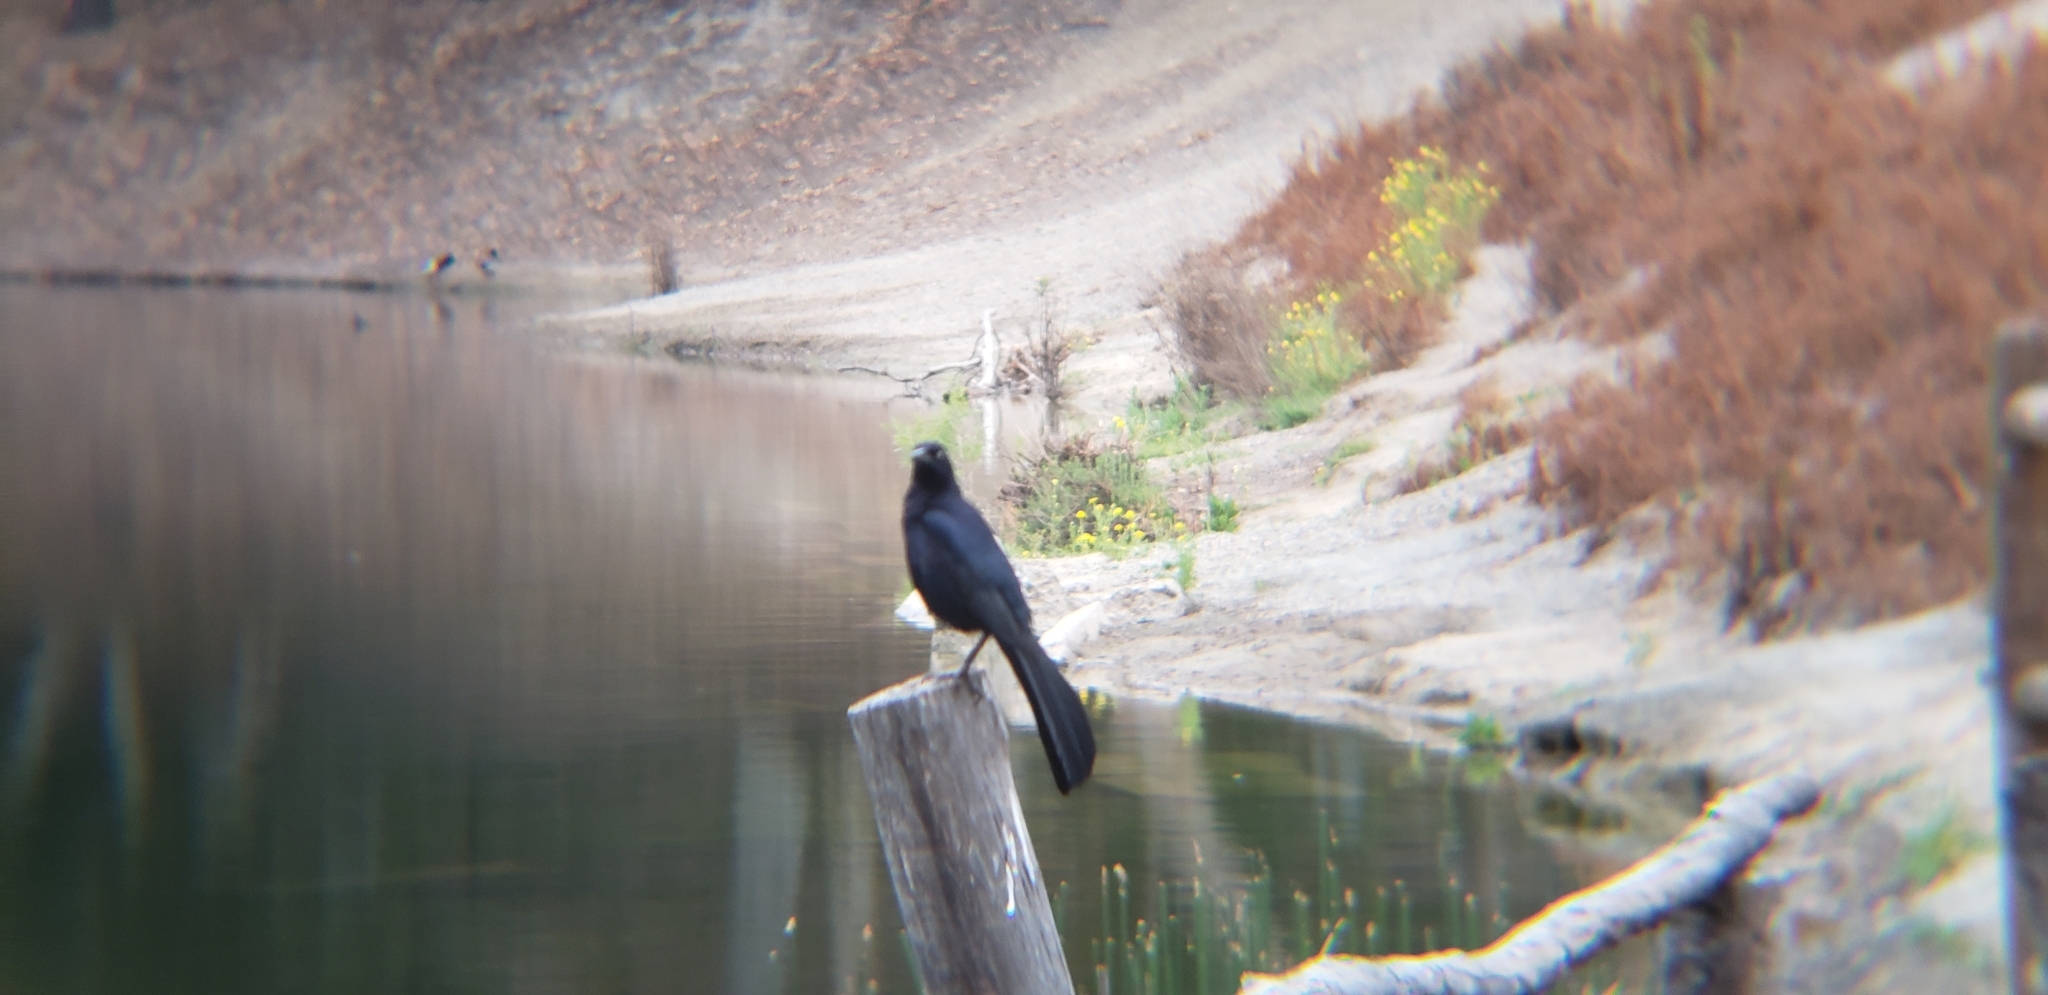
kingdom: Animalia
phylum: Chordata
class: Aves
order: Passeriformes
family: Icteridae
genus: Quiscalus
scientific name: Quiscalus mexicanus
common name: Great-tailed grackle
